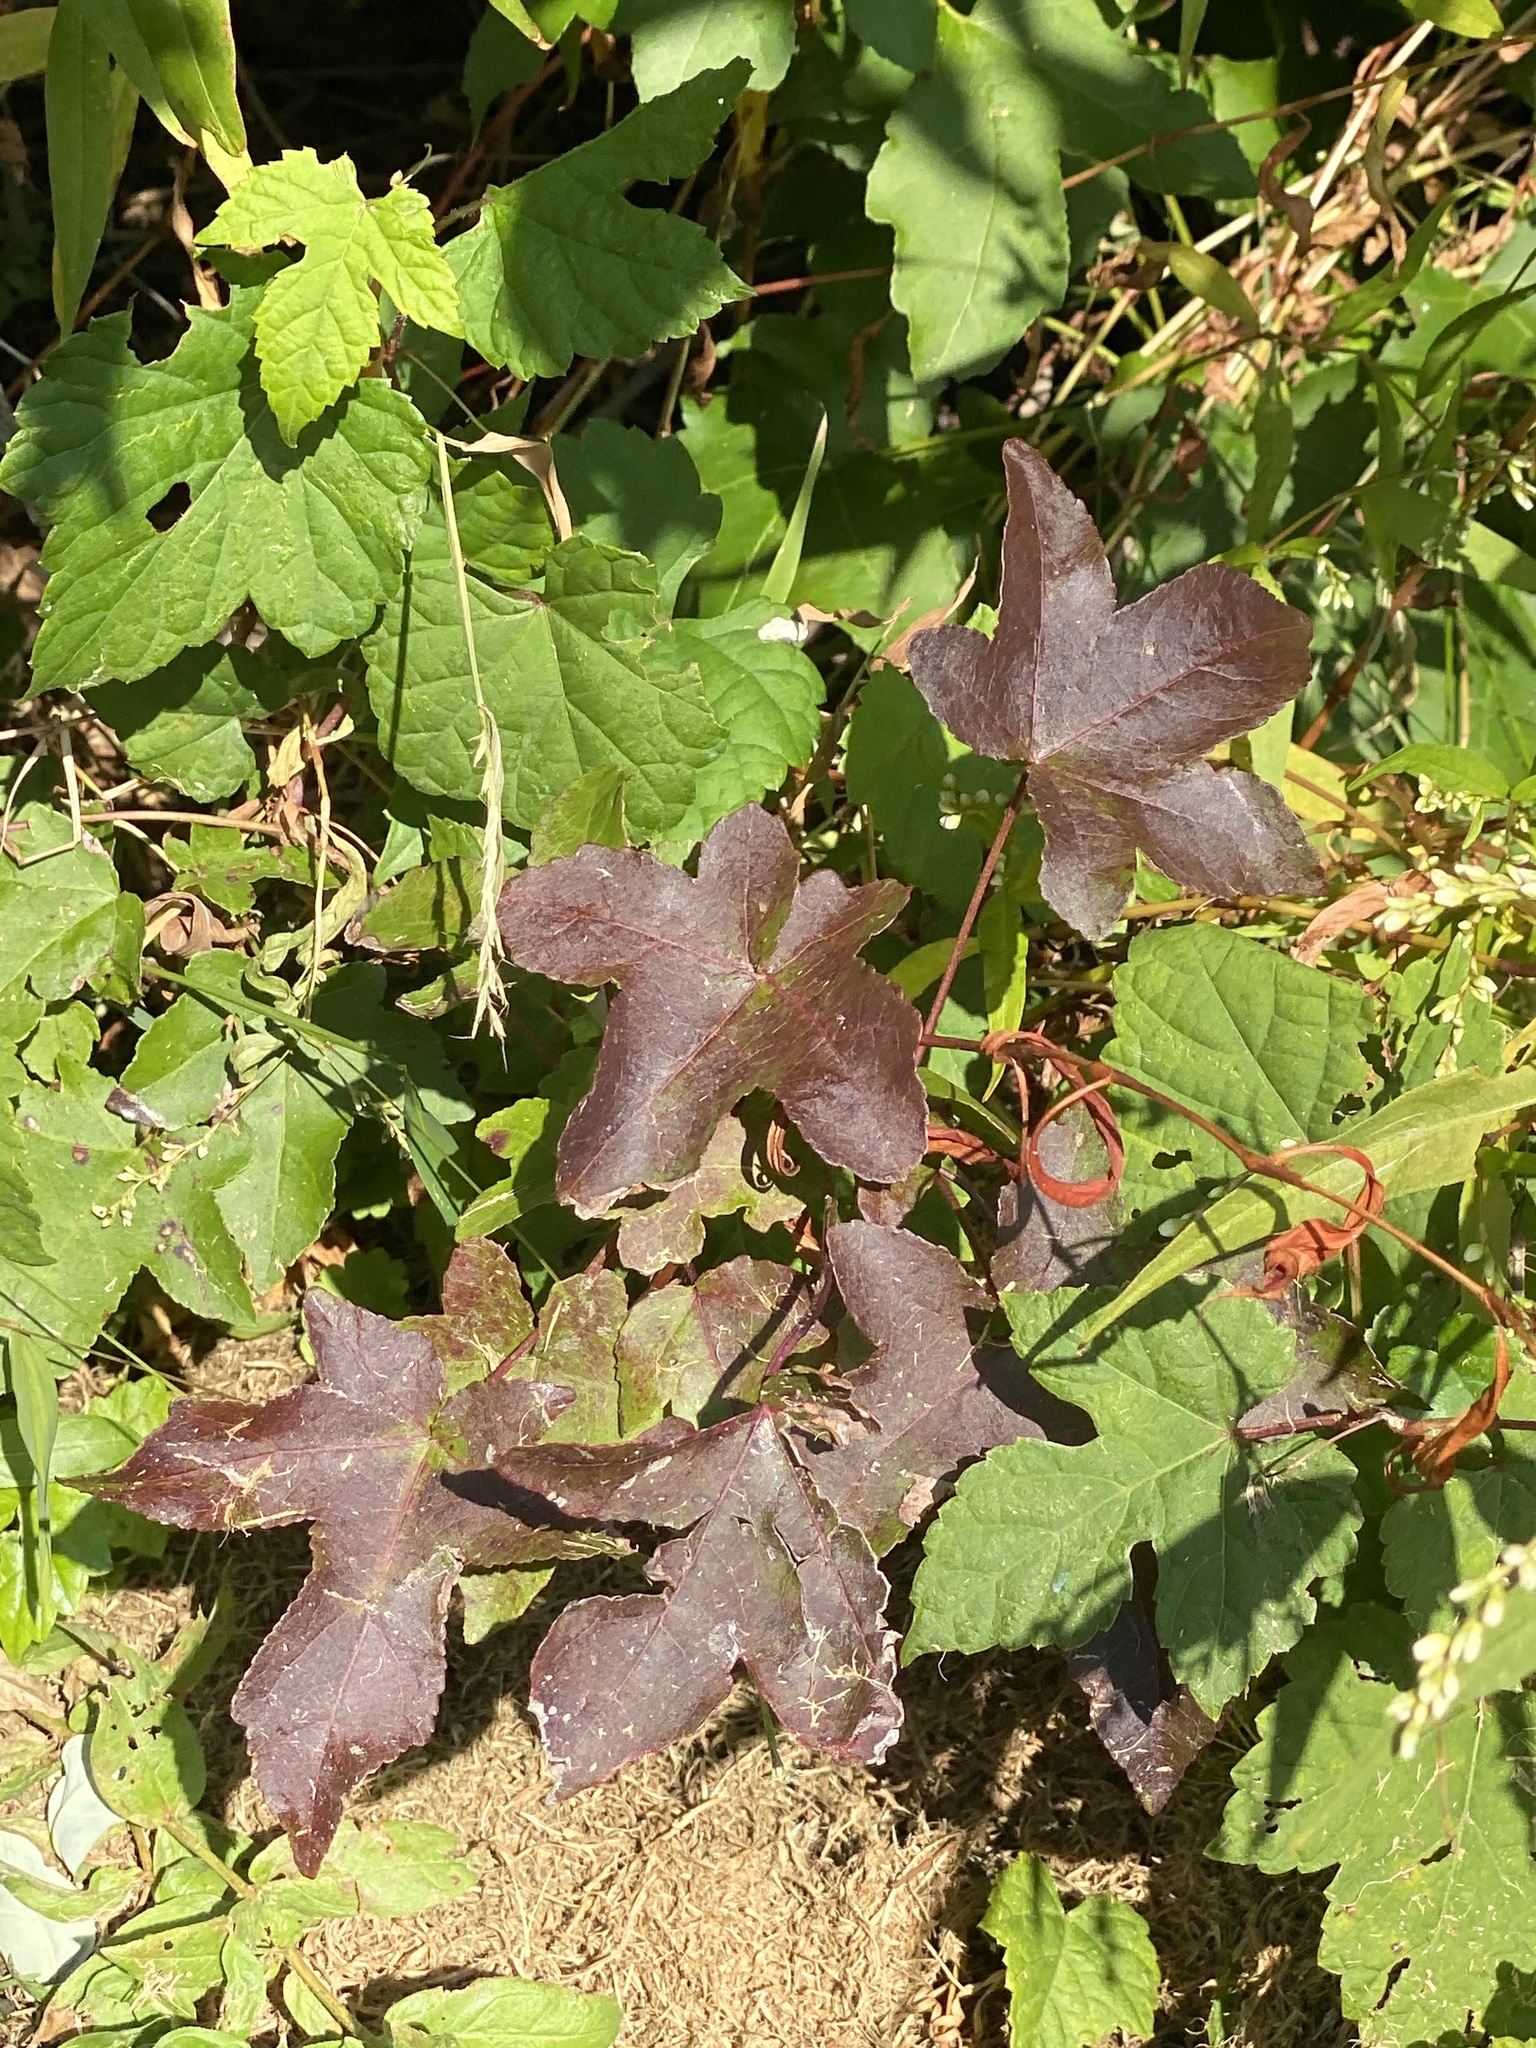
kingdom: Plantae
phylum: Tracheophyta
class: Magnoliopsida
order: Saxifragales
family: Altingiaceae
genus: Liquidambar
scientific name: Liquidambar styraciflua
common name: Sweet gum
